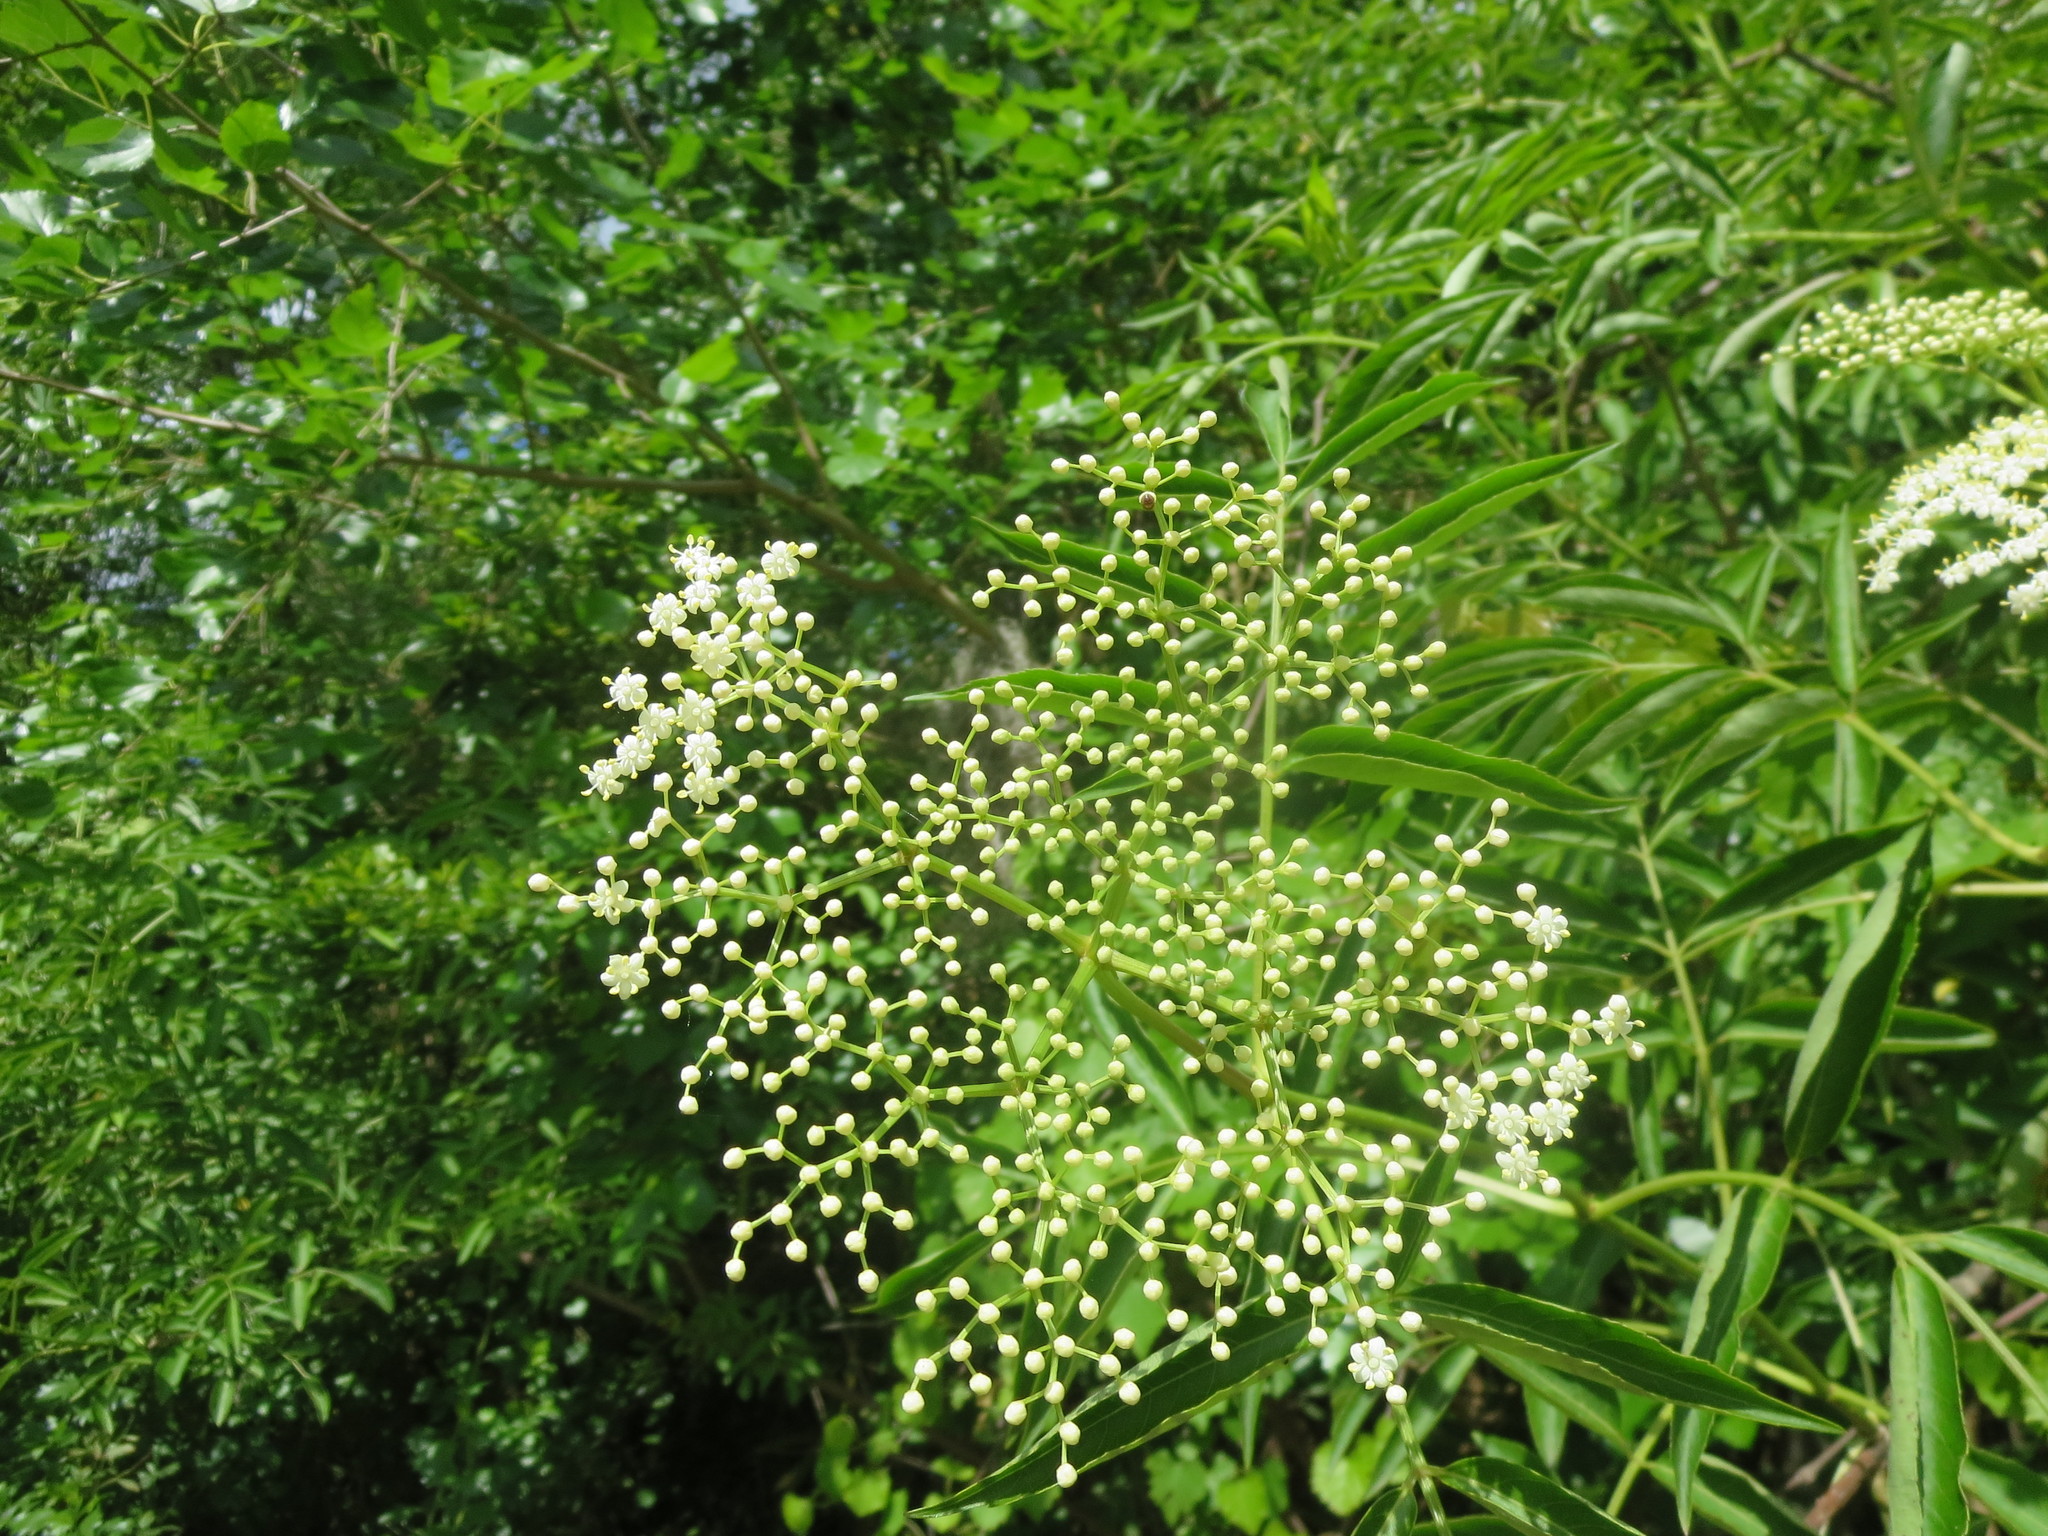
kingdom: Plantae
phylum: Tracheophyta
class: Magnoliopsida
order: Dipsacales
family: Viburnaceae
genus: Sambucus
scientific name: Sambucus canadensis
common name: American elder
